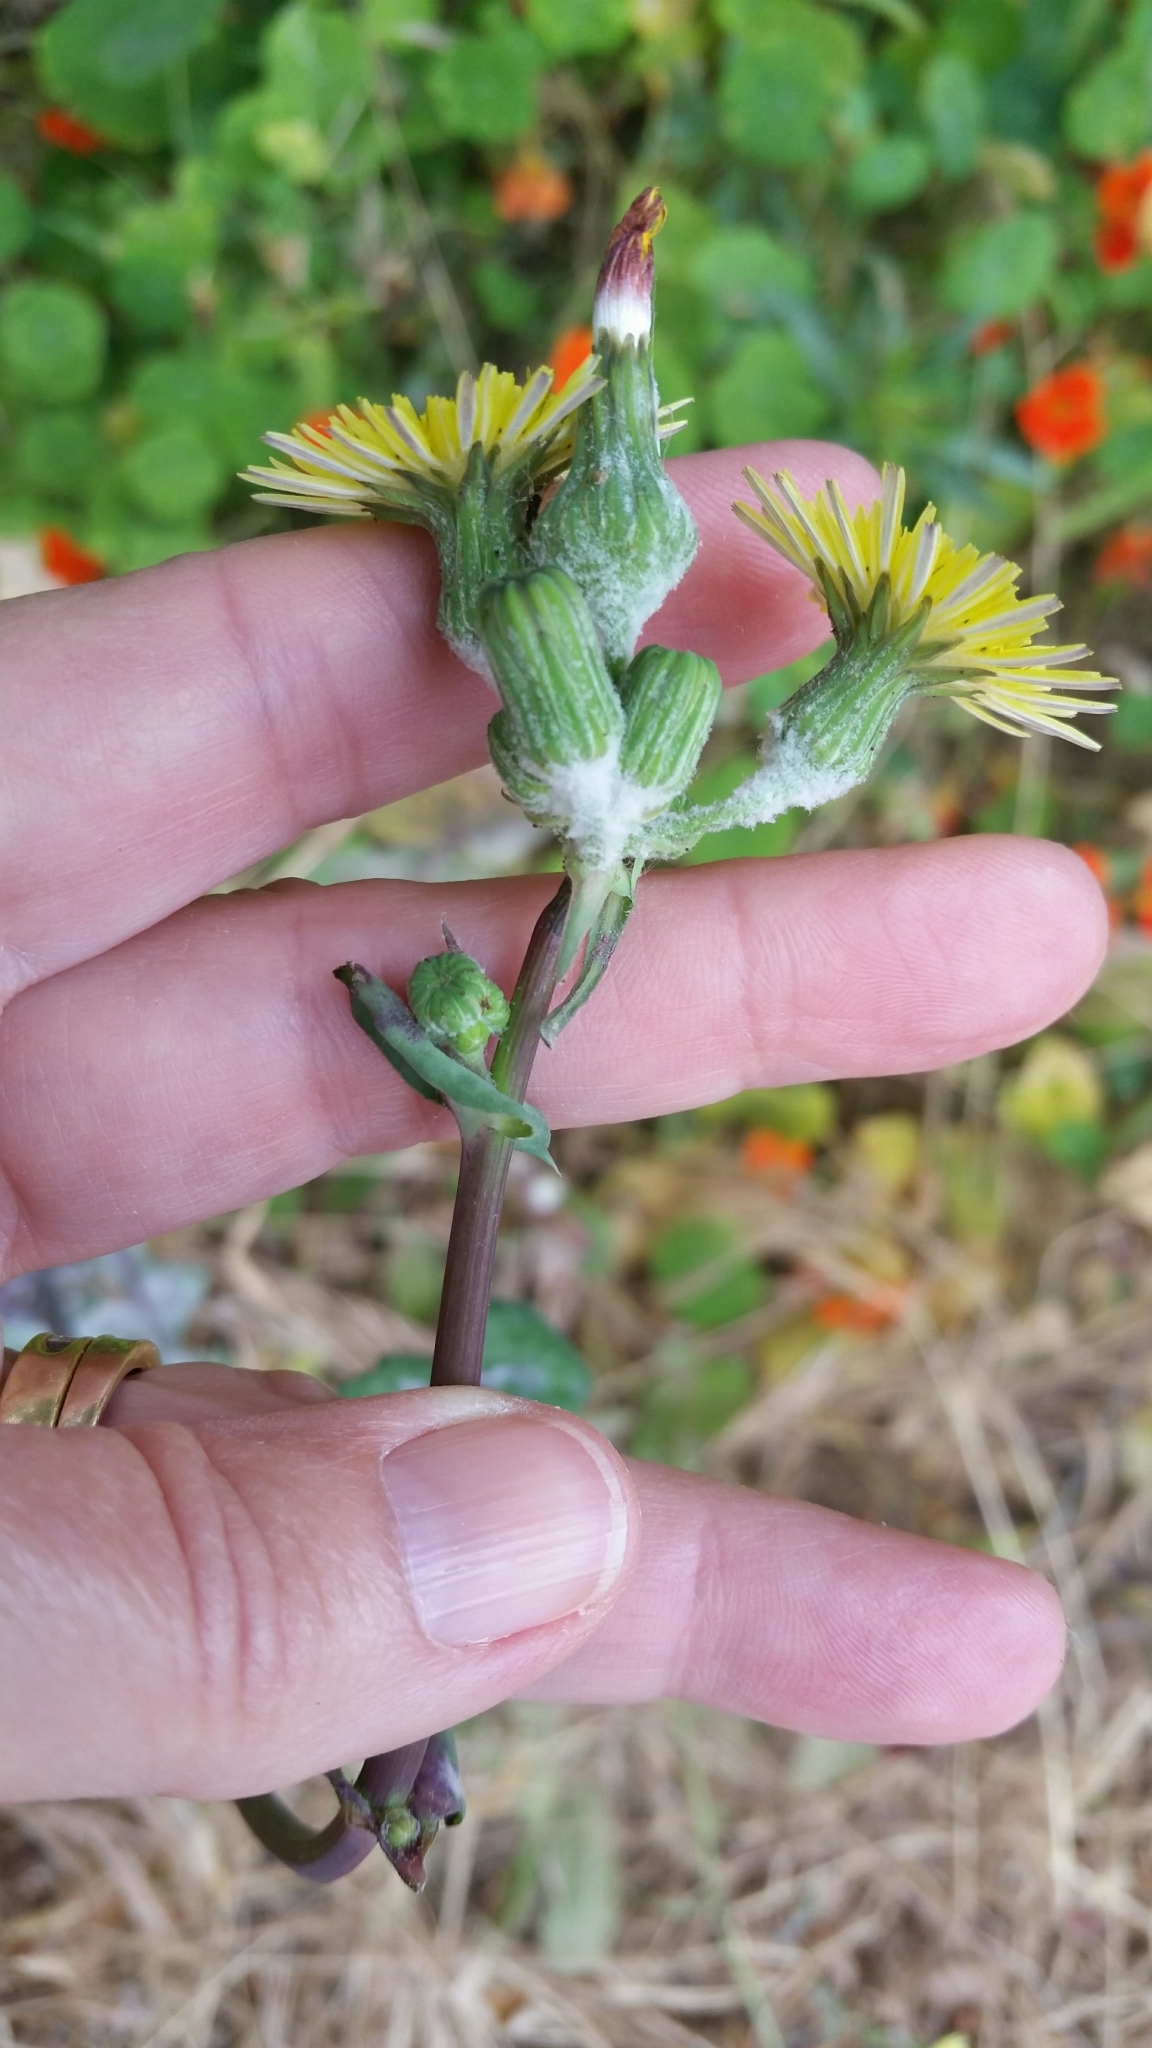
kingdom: Plantae
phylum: Tracheophyta
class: Magnoliopsida
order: Asterales
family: Asteraceae
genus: Sonchus
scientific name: Sonchus oleraceus
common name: Common sowthistle
